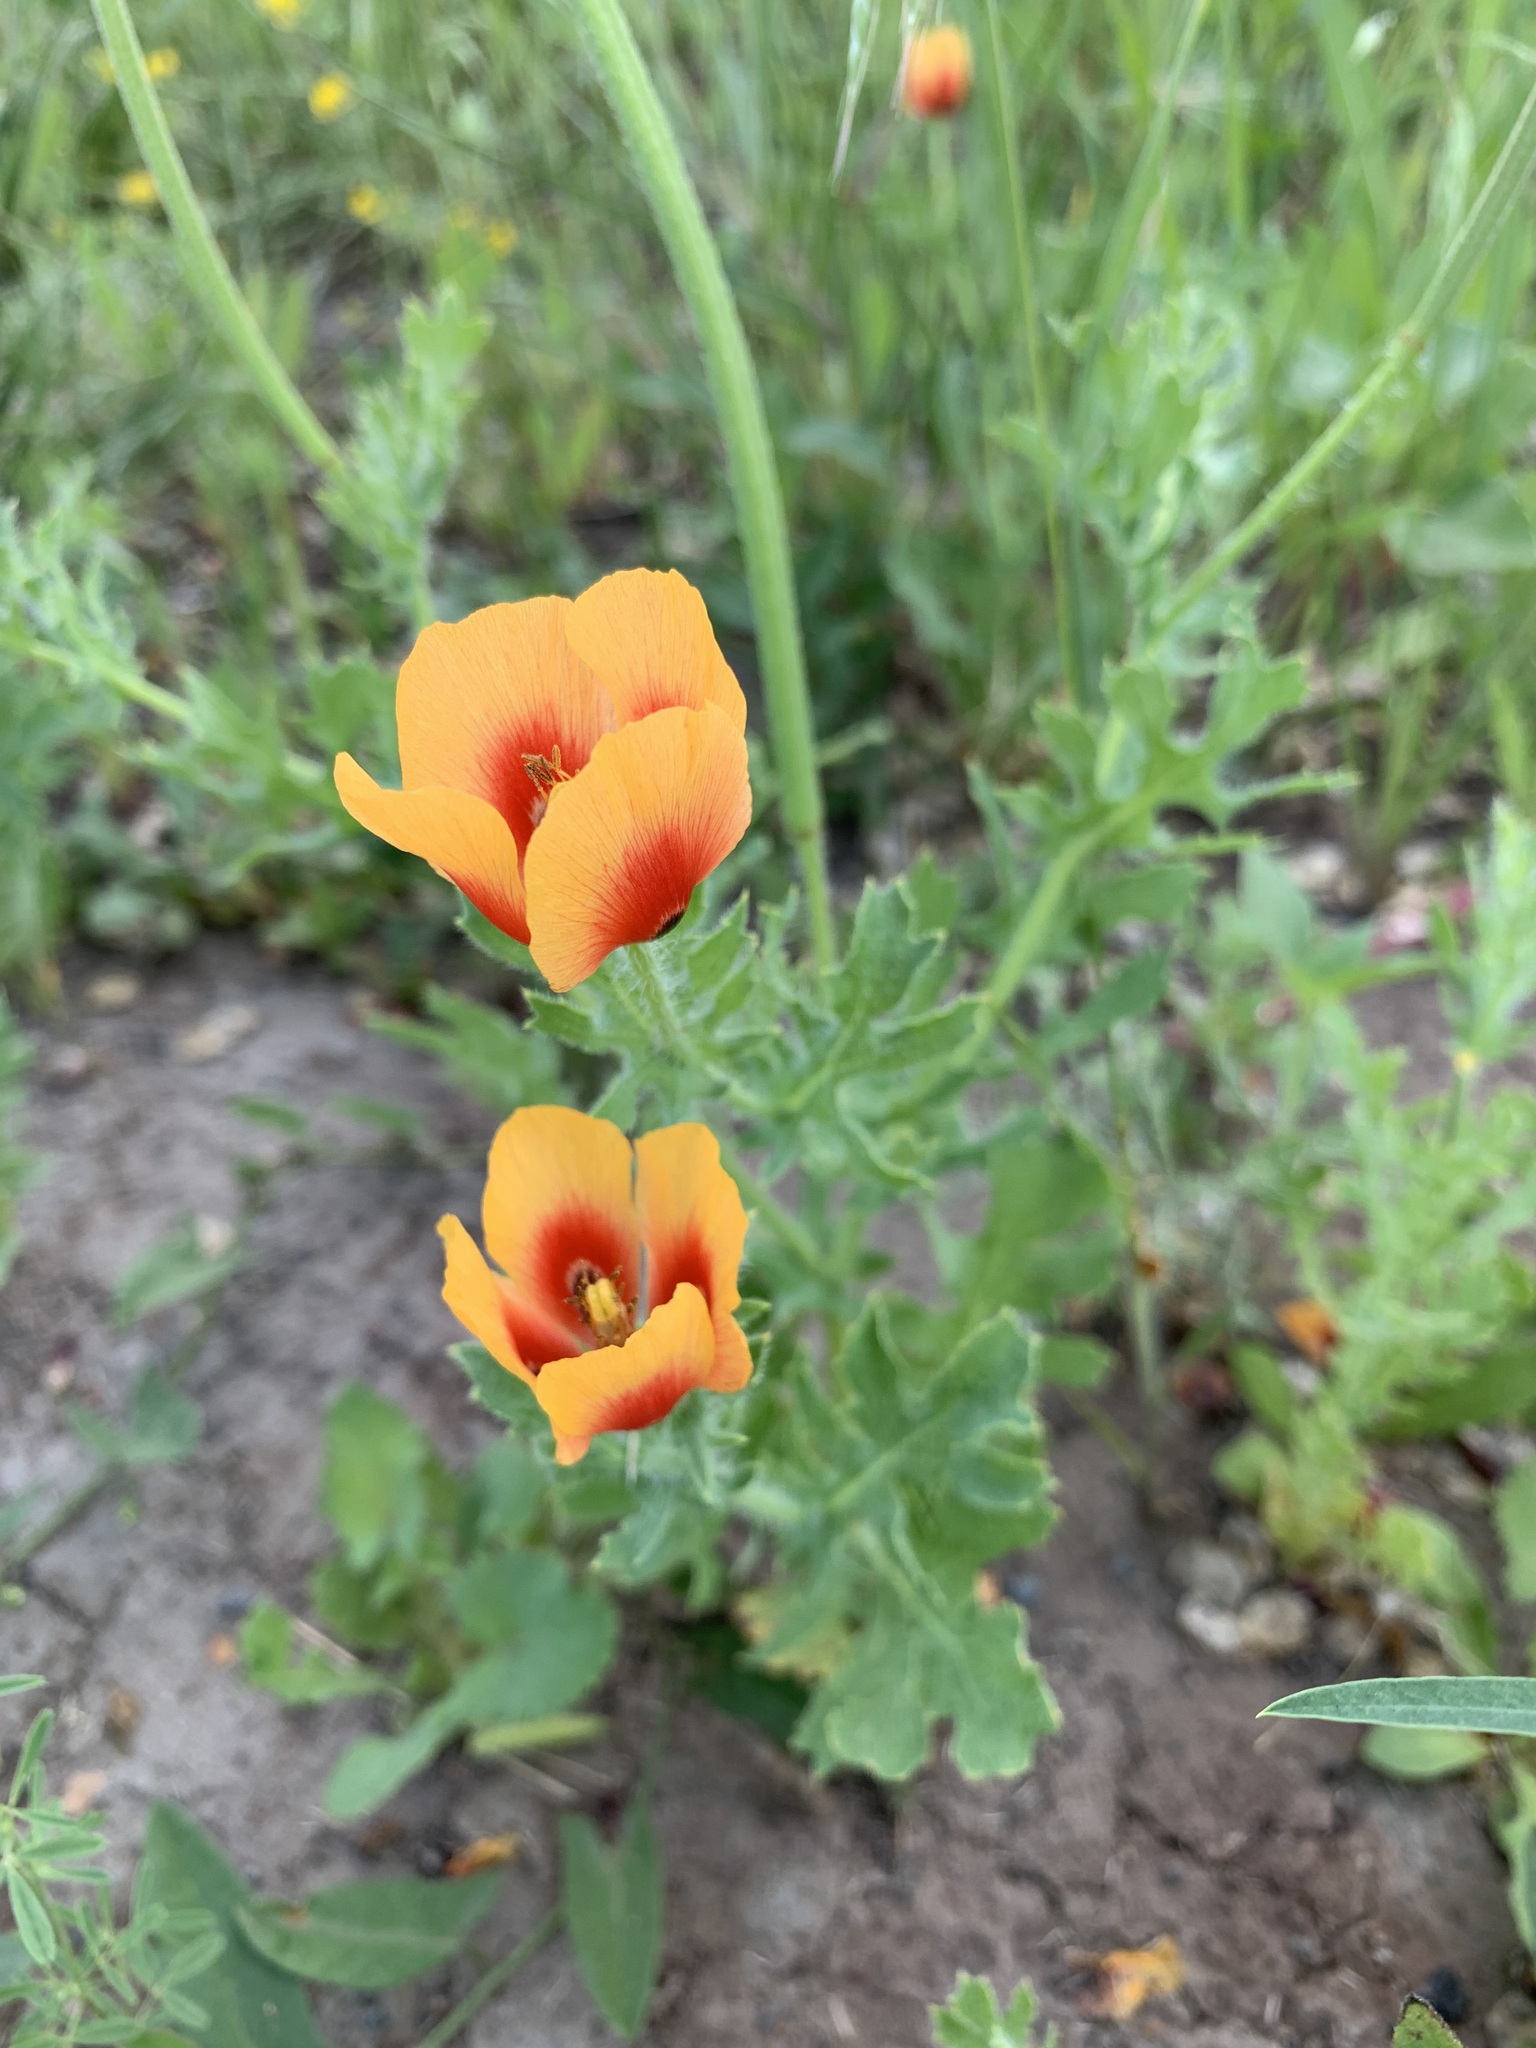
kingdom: Plantae
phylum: Tracheophyta
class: Magnoliopsida
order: Ranunculales
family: Papaveraceae
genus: Glaucium
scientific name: Glaucium corniculatum
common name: Red horned-poppy
